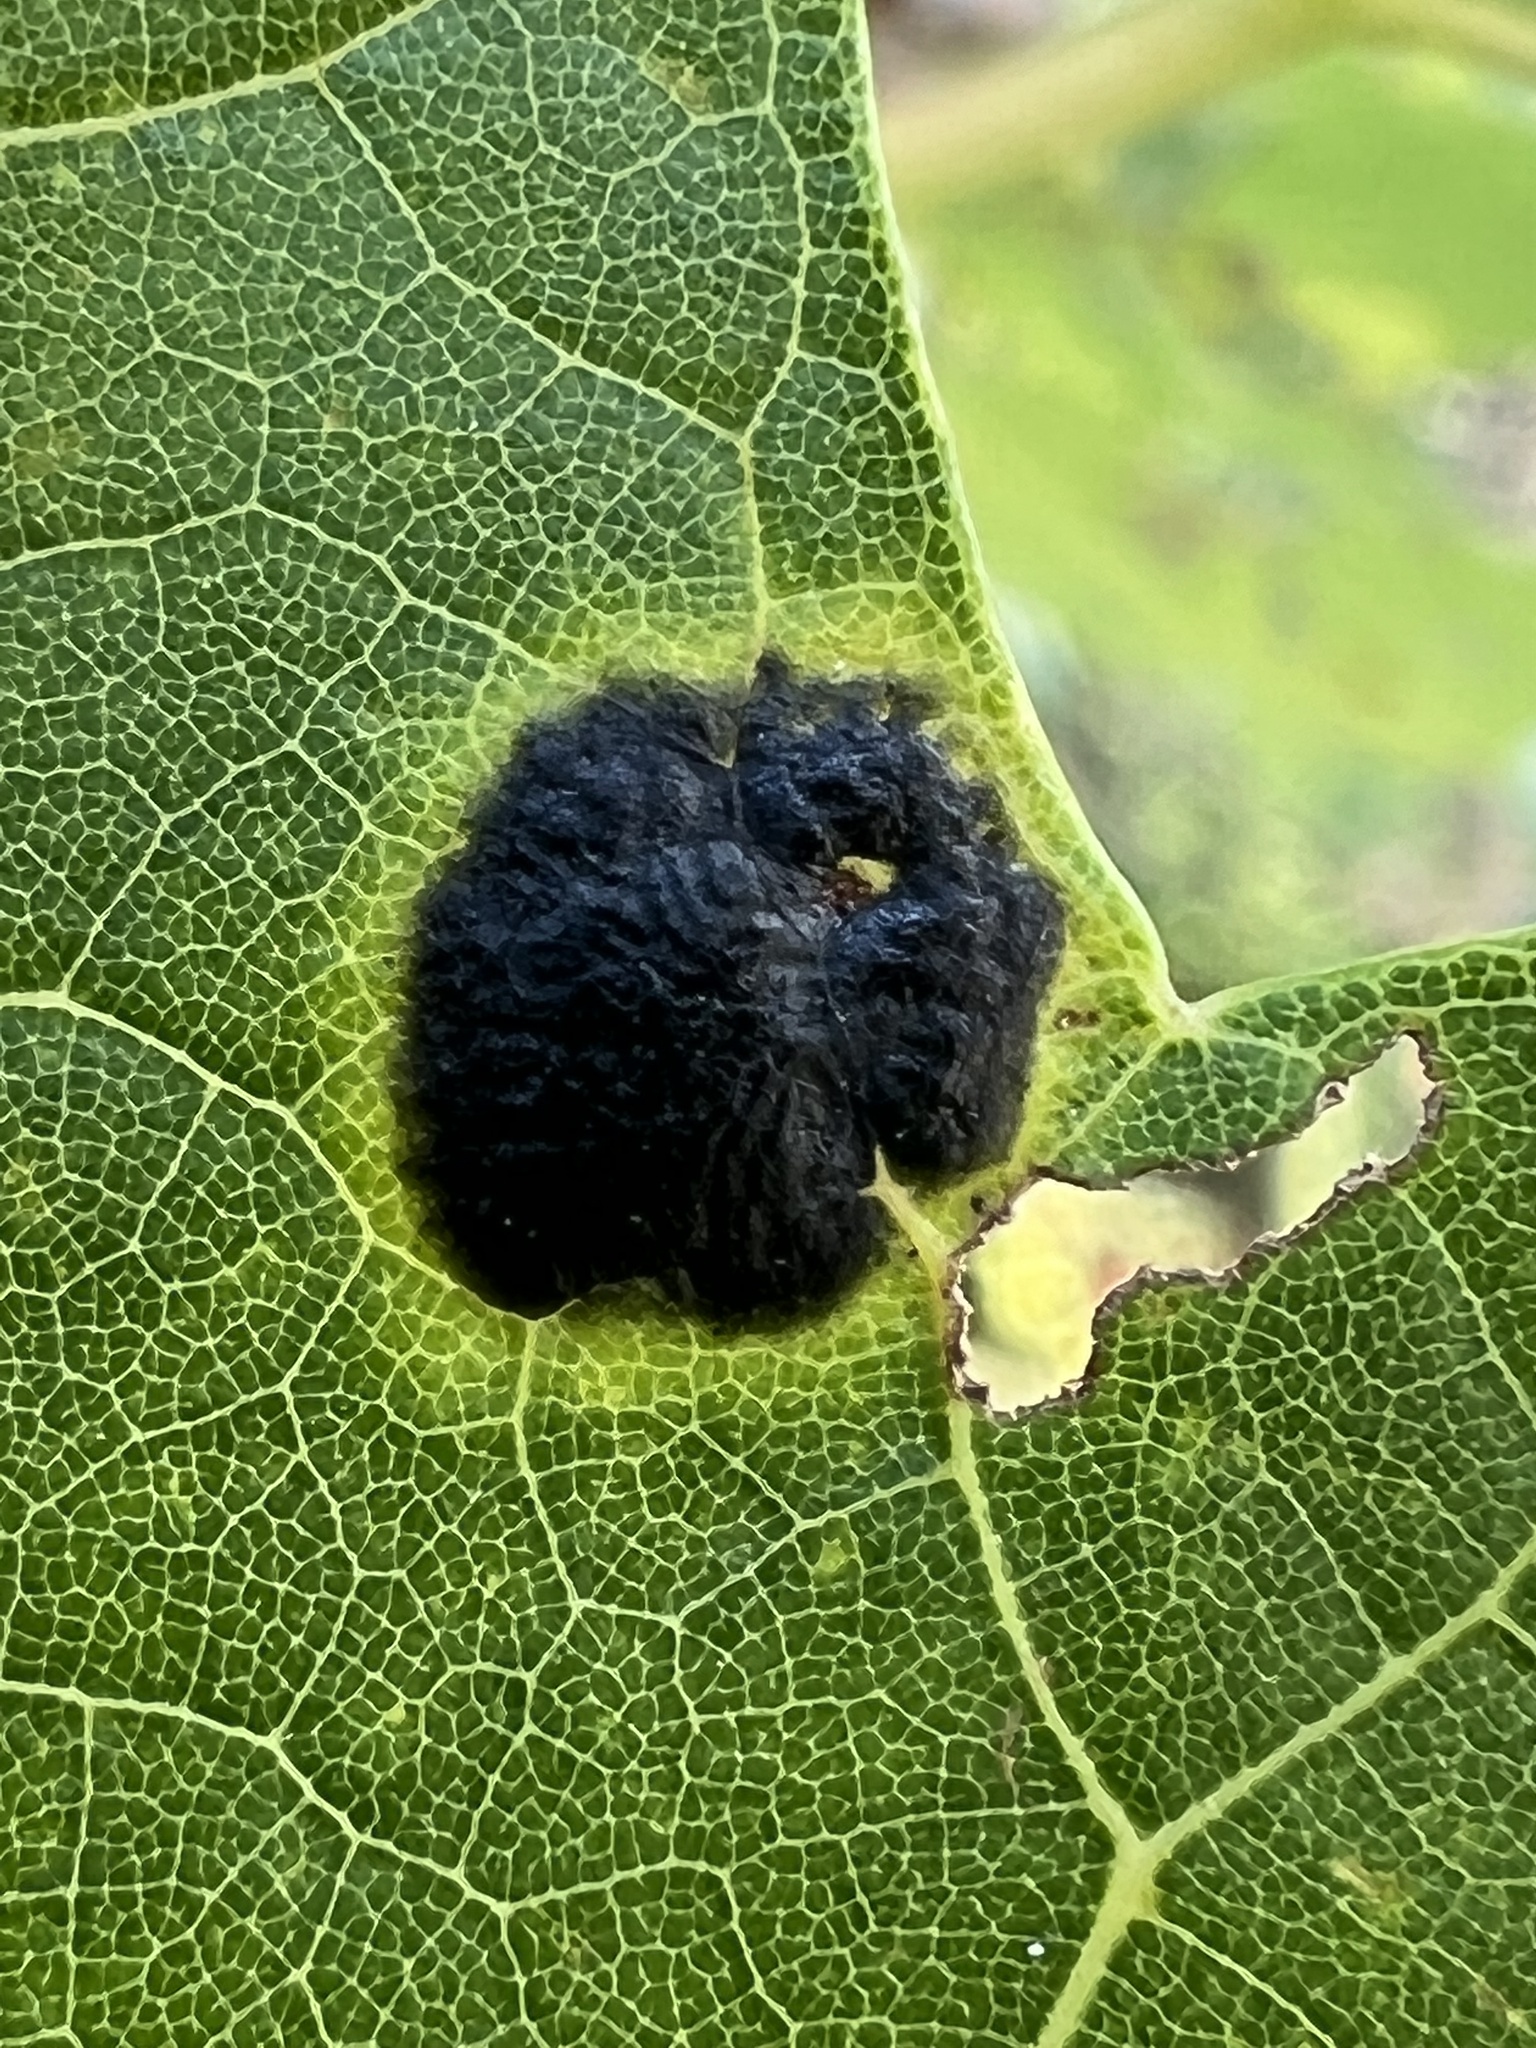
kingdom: Fungi
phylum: Ascomycota
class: Leotiomycetes
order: Rhytismatales
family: Rhytismataceae
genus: Rhytisma
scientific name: Rhytisma americanum
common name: American tar spot
